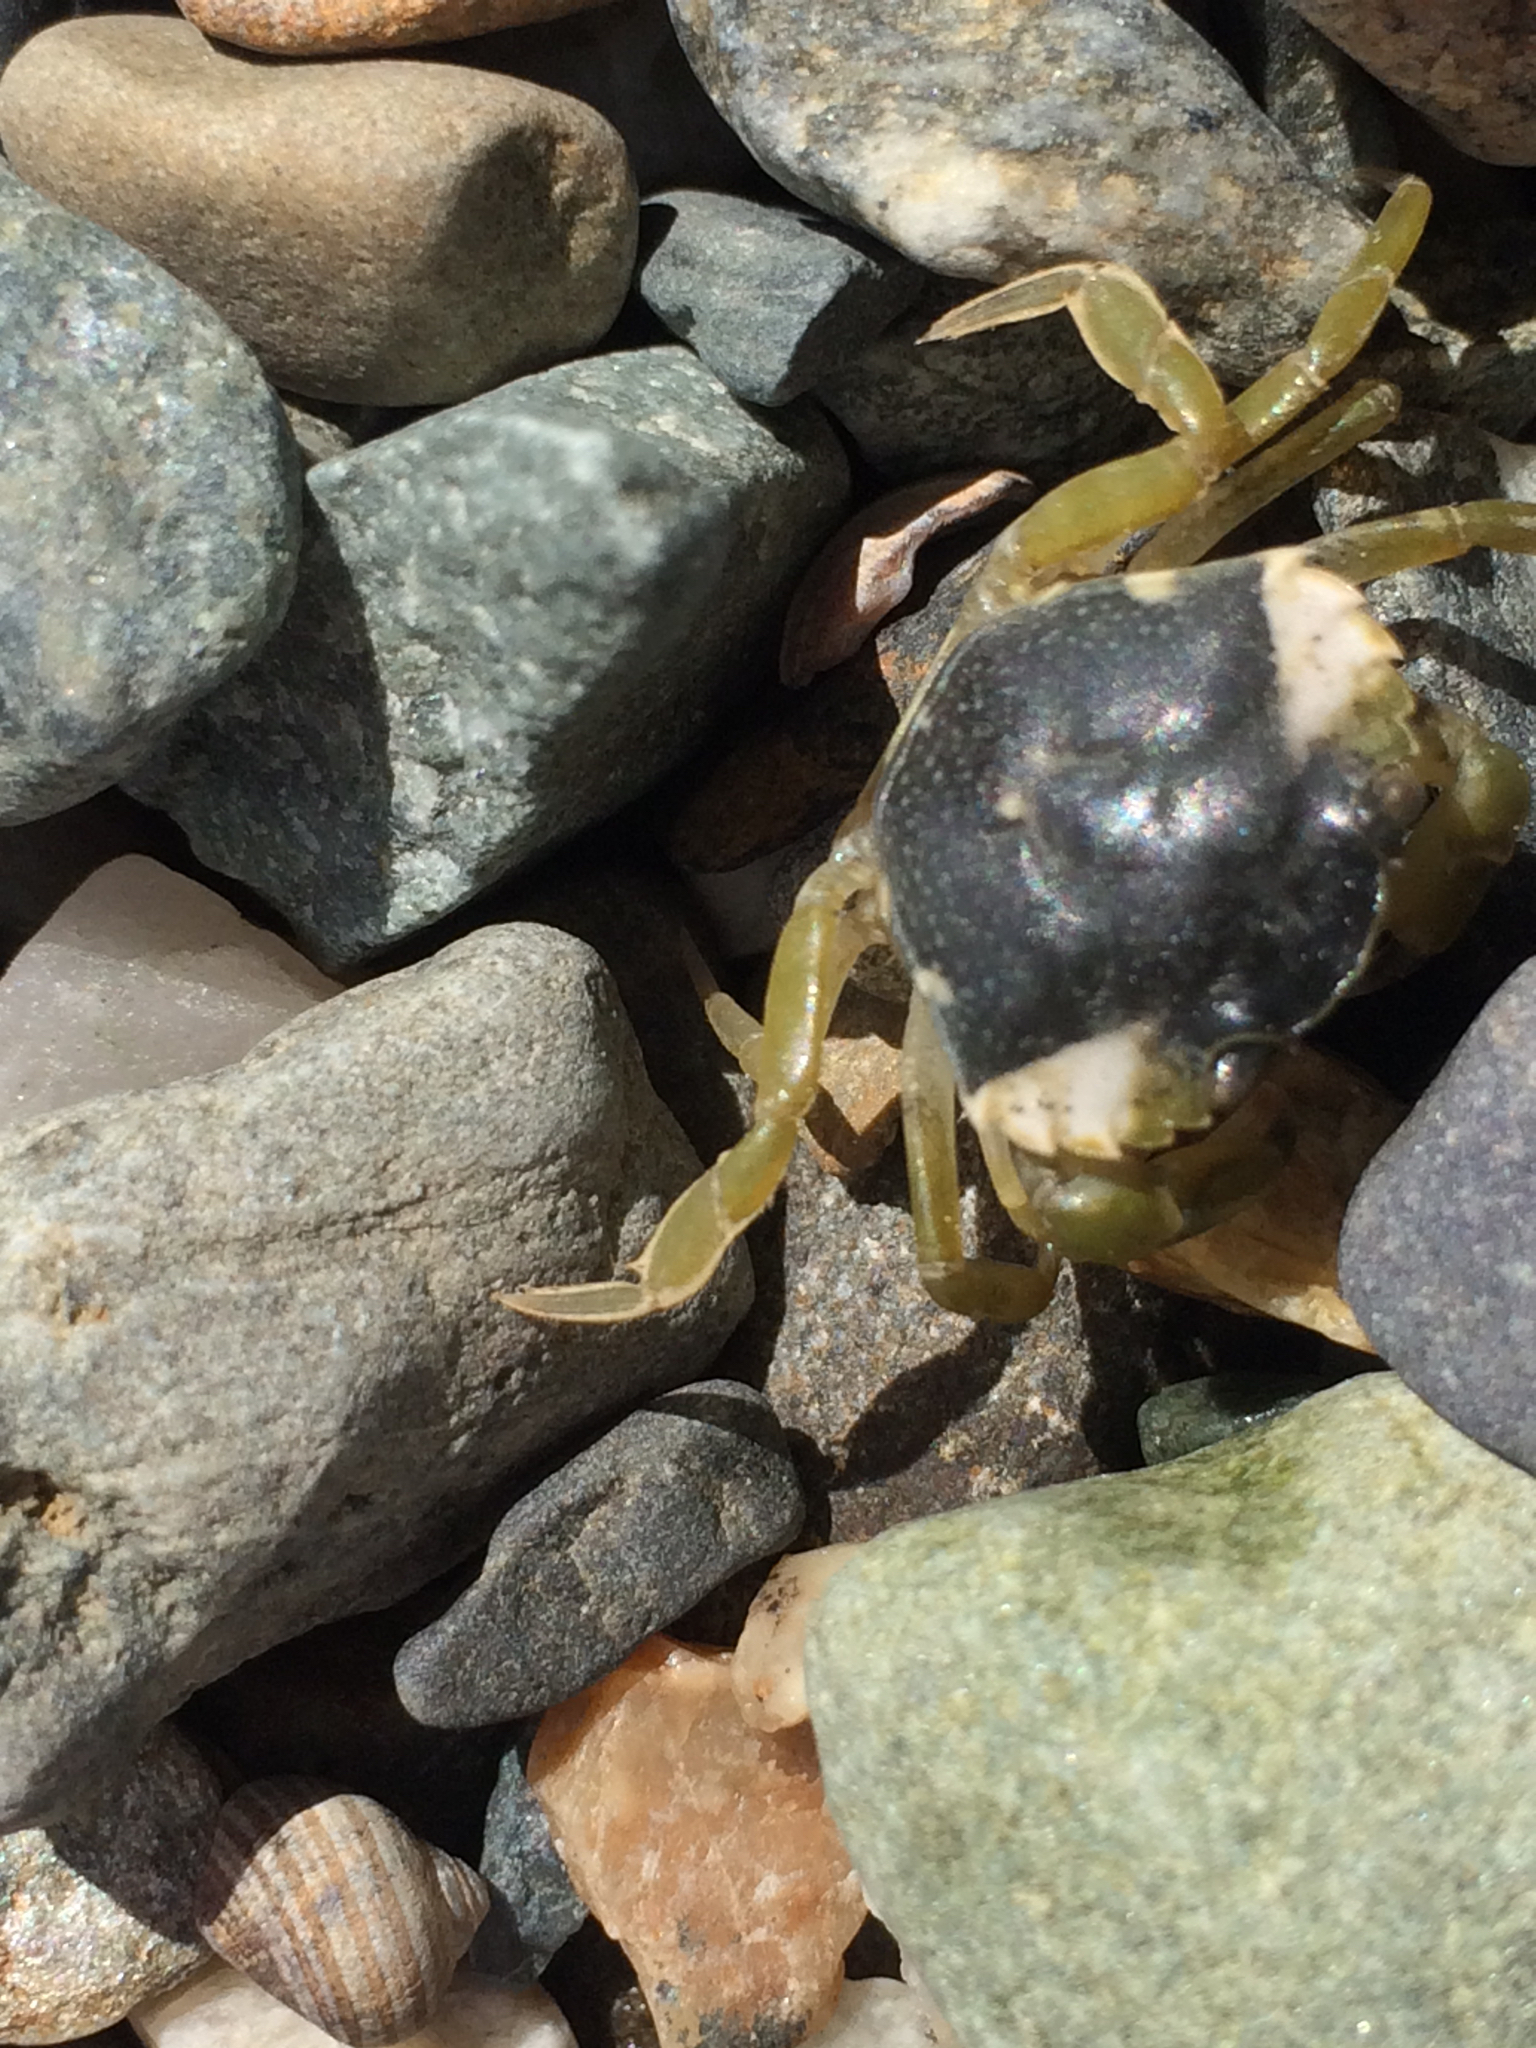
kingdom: Animalia
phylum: Arthropoda
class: Malacostraca
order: Decapoda
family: Carcinidae
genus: Carcinus
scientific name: Carcinus maenas
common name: European green crab
